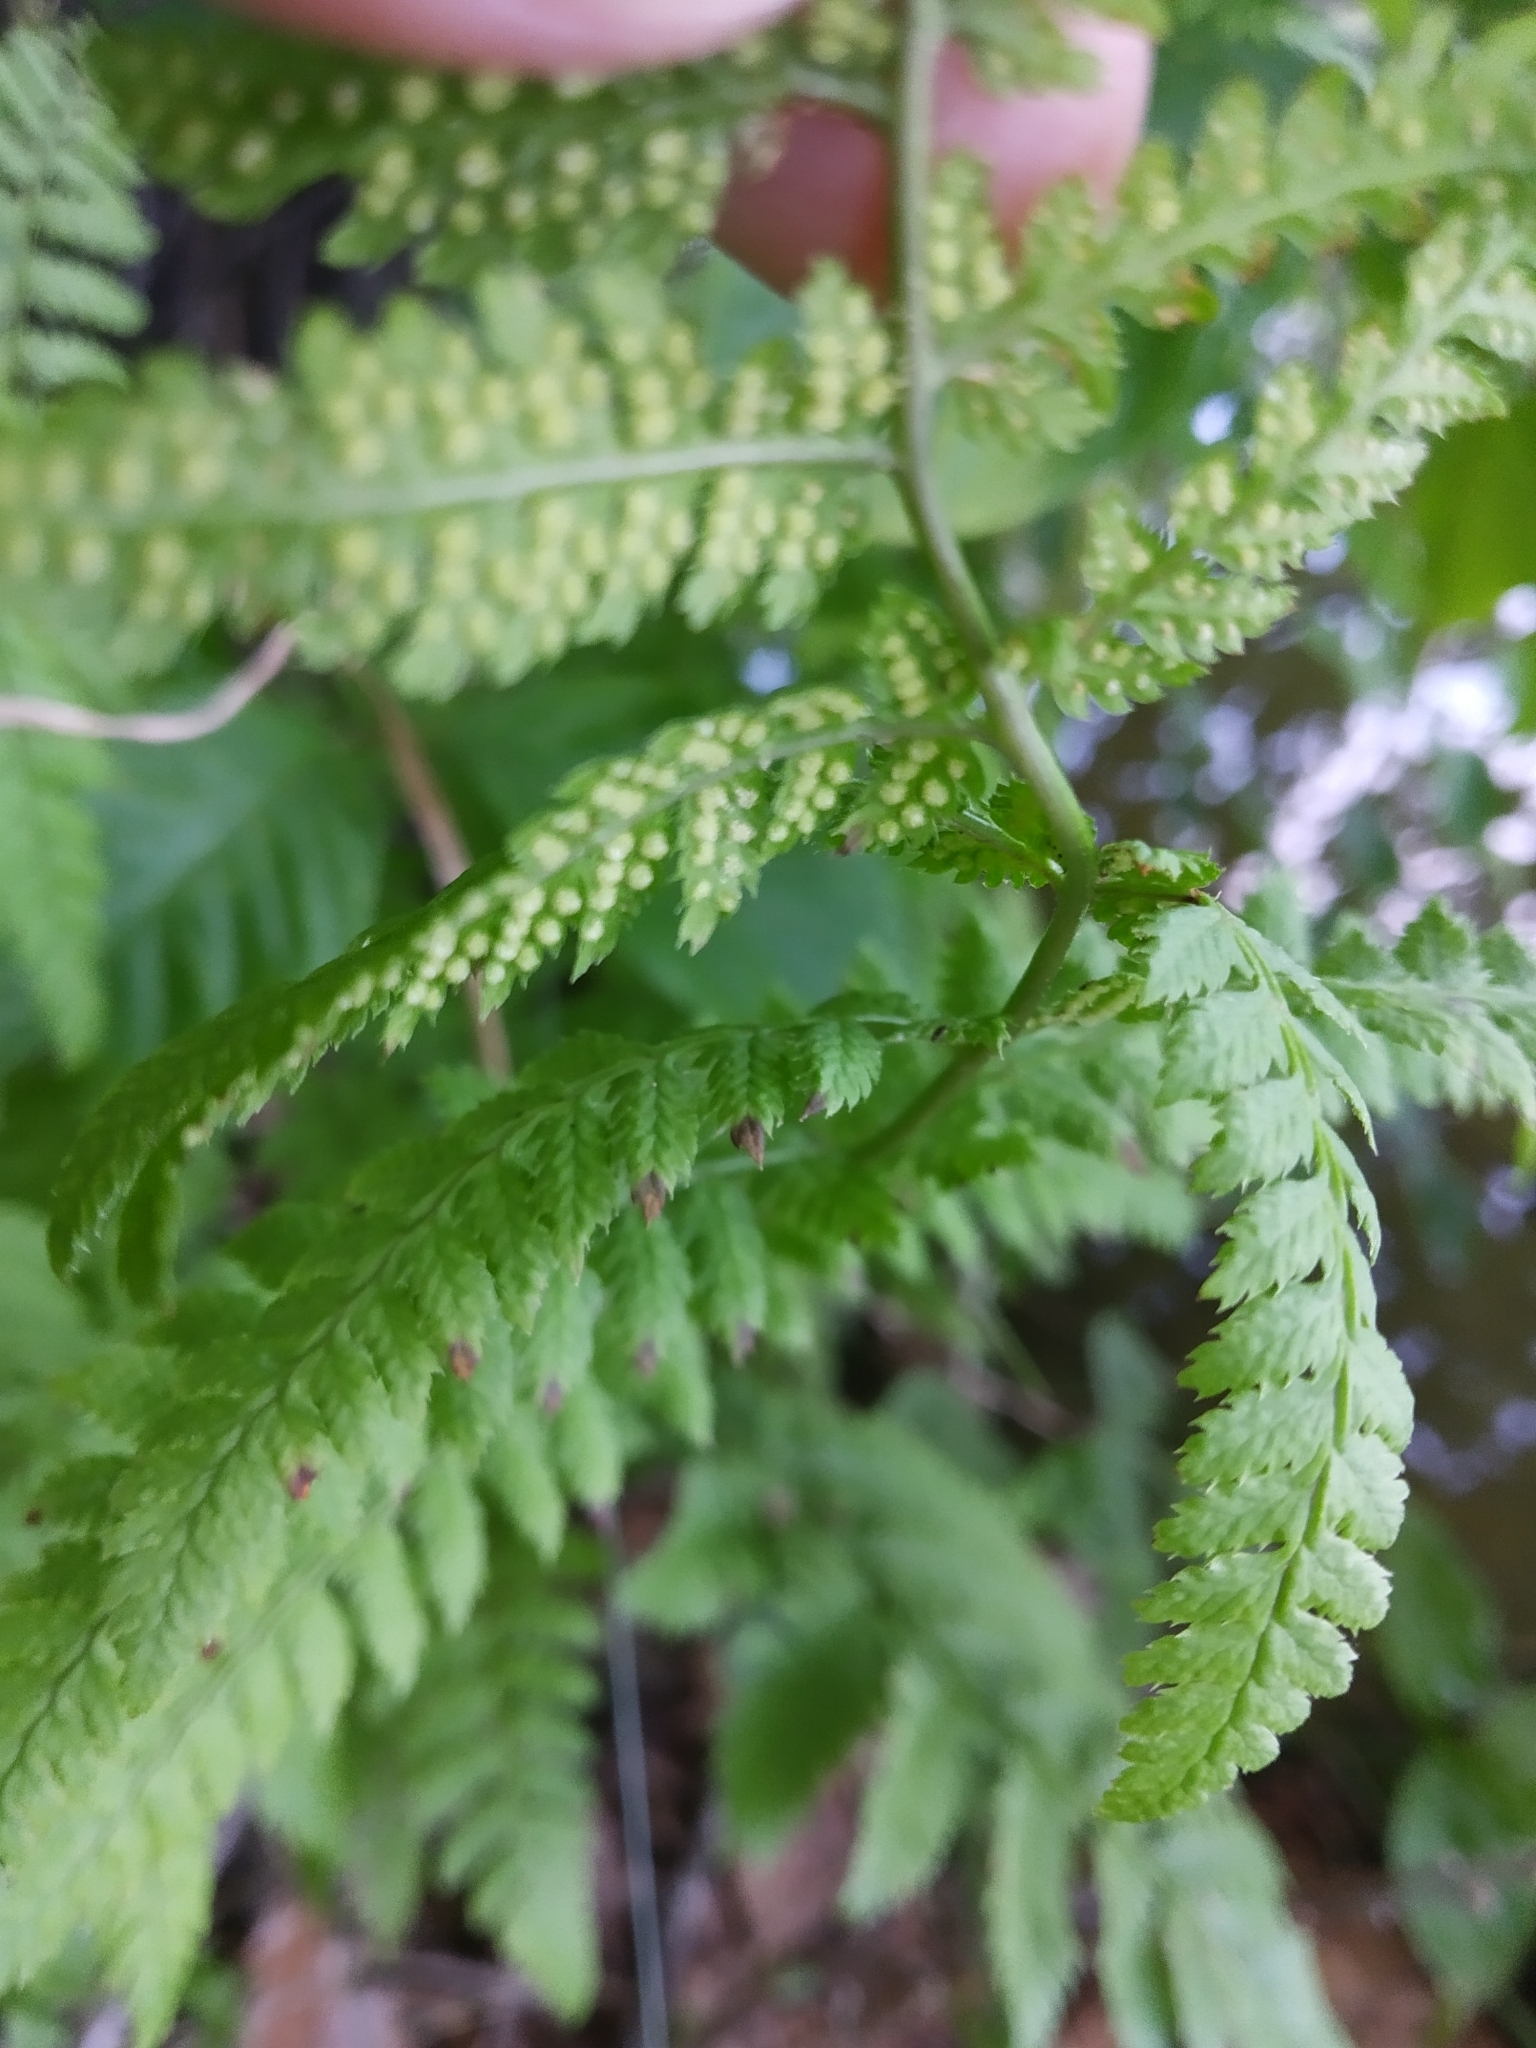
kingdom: Plantae
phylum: Tracheophyta
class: Polypodiopsida
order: Polypodiales
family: Dryopteridaceae
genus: Dryopteris
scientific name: Dryopteris carthusiana
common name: Narrow buckler-fern
